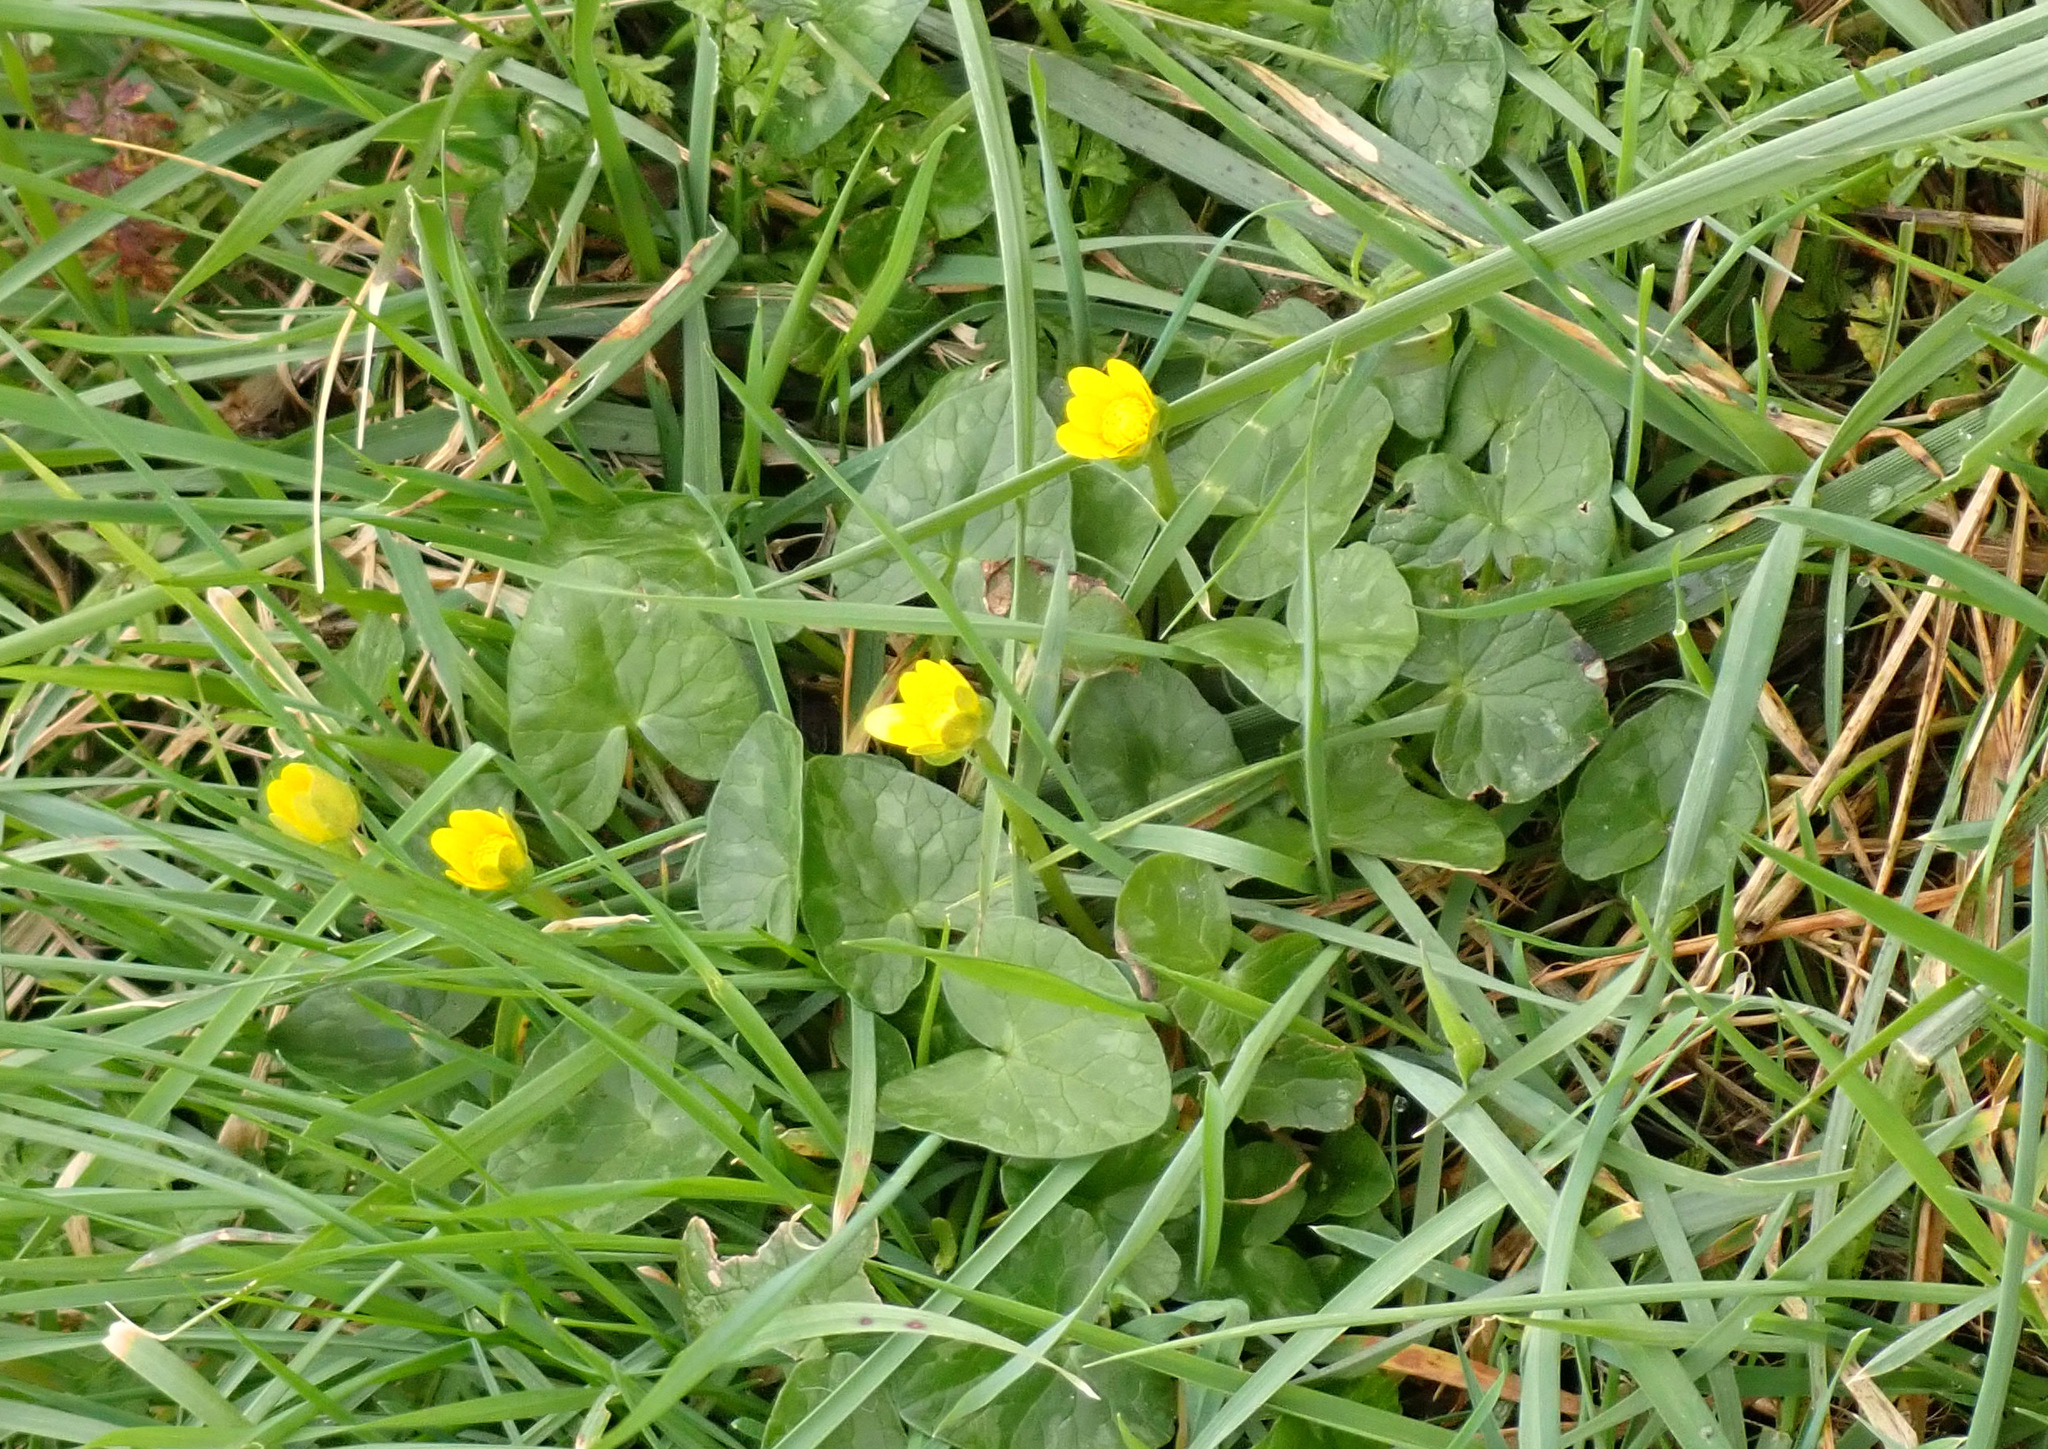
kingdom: Plantae
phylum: Tracheophyta
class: Magnoliopsida
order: Ranunculales
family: Ranunculaceae
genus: Ficaria
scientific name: Ficaria verna
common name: Lesser celandine
